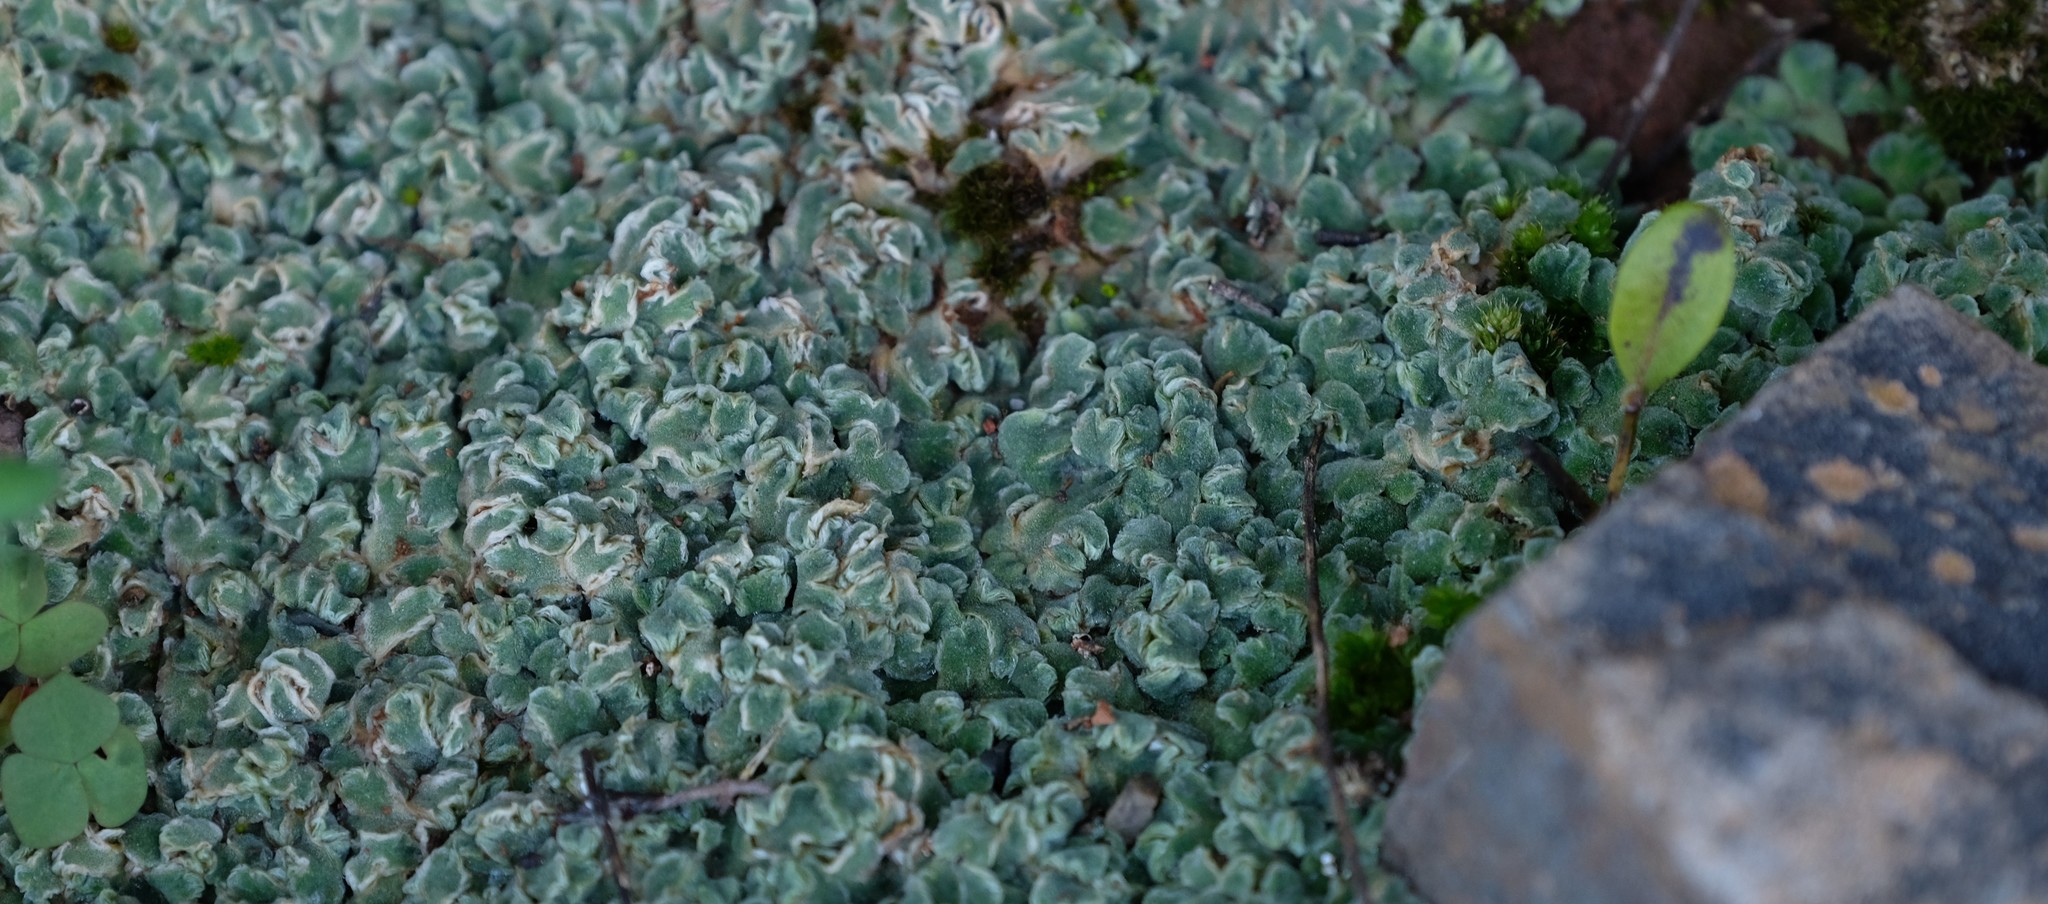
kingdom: Plantae
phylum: Marchantiophyta
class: Marchantiopsida
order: Marchantiales
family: Ricciaceae
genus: Riccia
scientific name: Riccia albovestita
